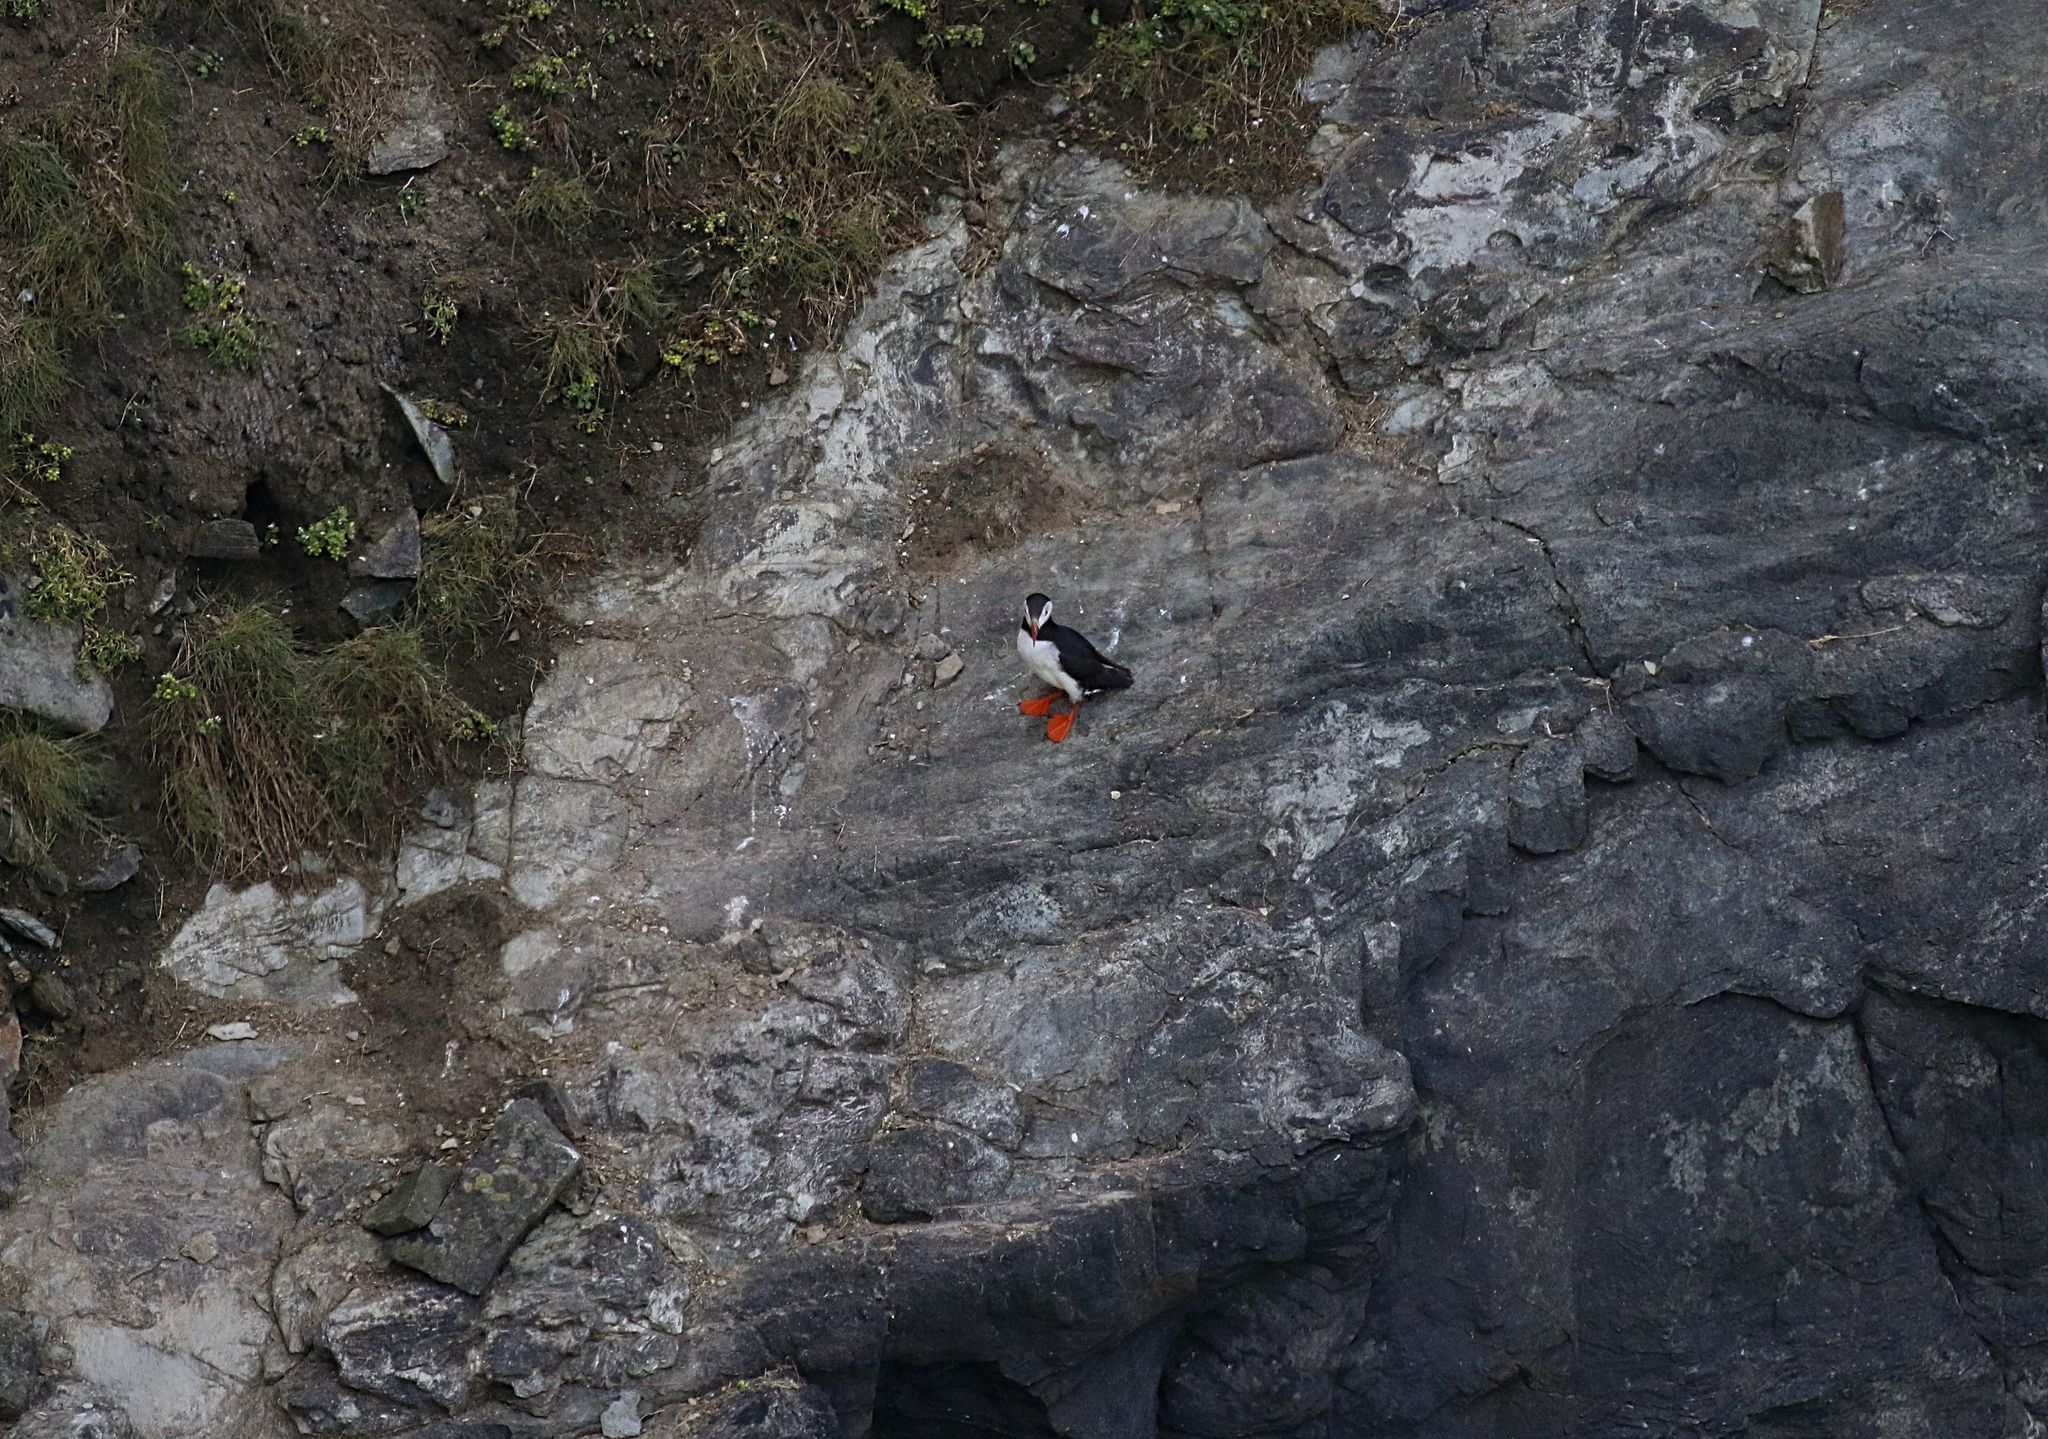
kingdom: Animalia
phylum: Chordata
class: Aves
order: Charadriiformes
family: Alcidae
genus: Fratercula
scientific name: Fratercula arctica
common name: Atlantic puffin
